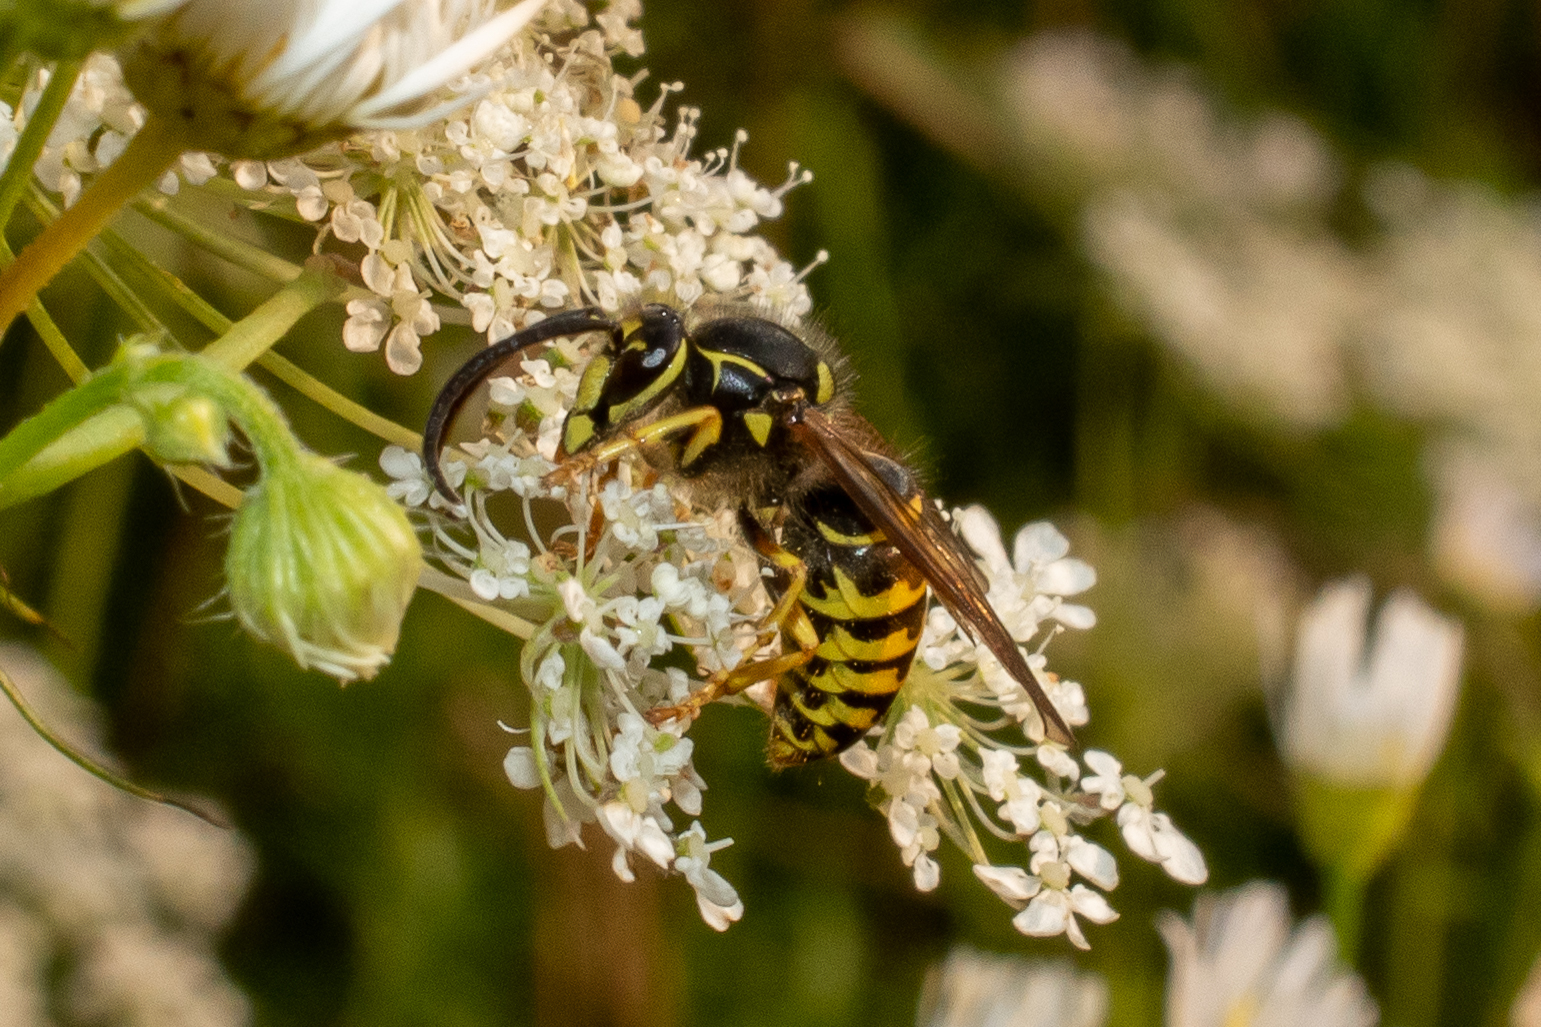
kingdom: Animalia
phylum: Arthropoda
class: Insecta
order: Hymenoptera
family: Vespidae
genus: Dolichovespula
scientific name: Dolichovespula arenaria
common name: Aerial yellowjacket
